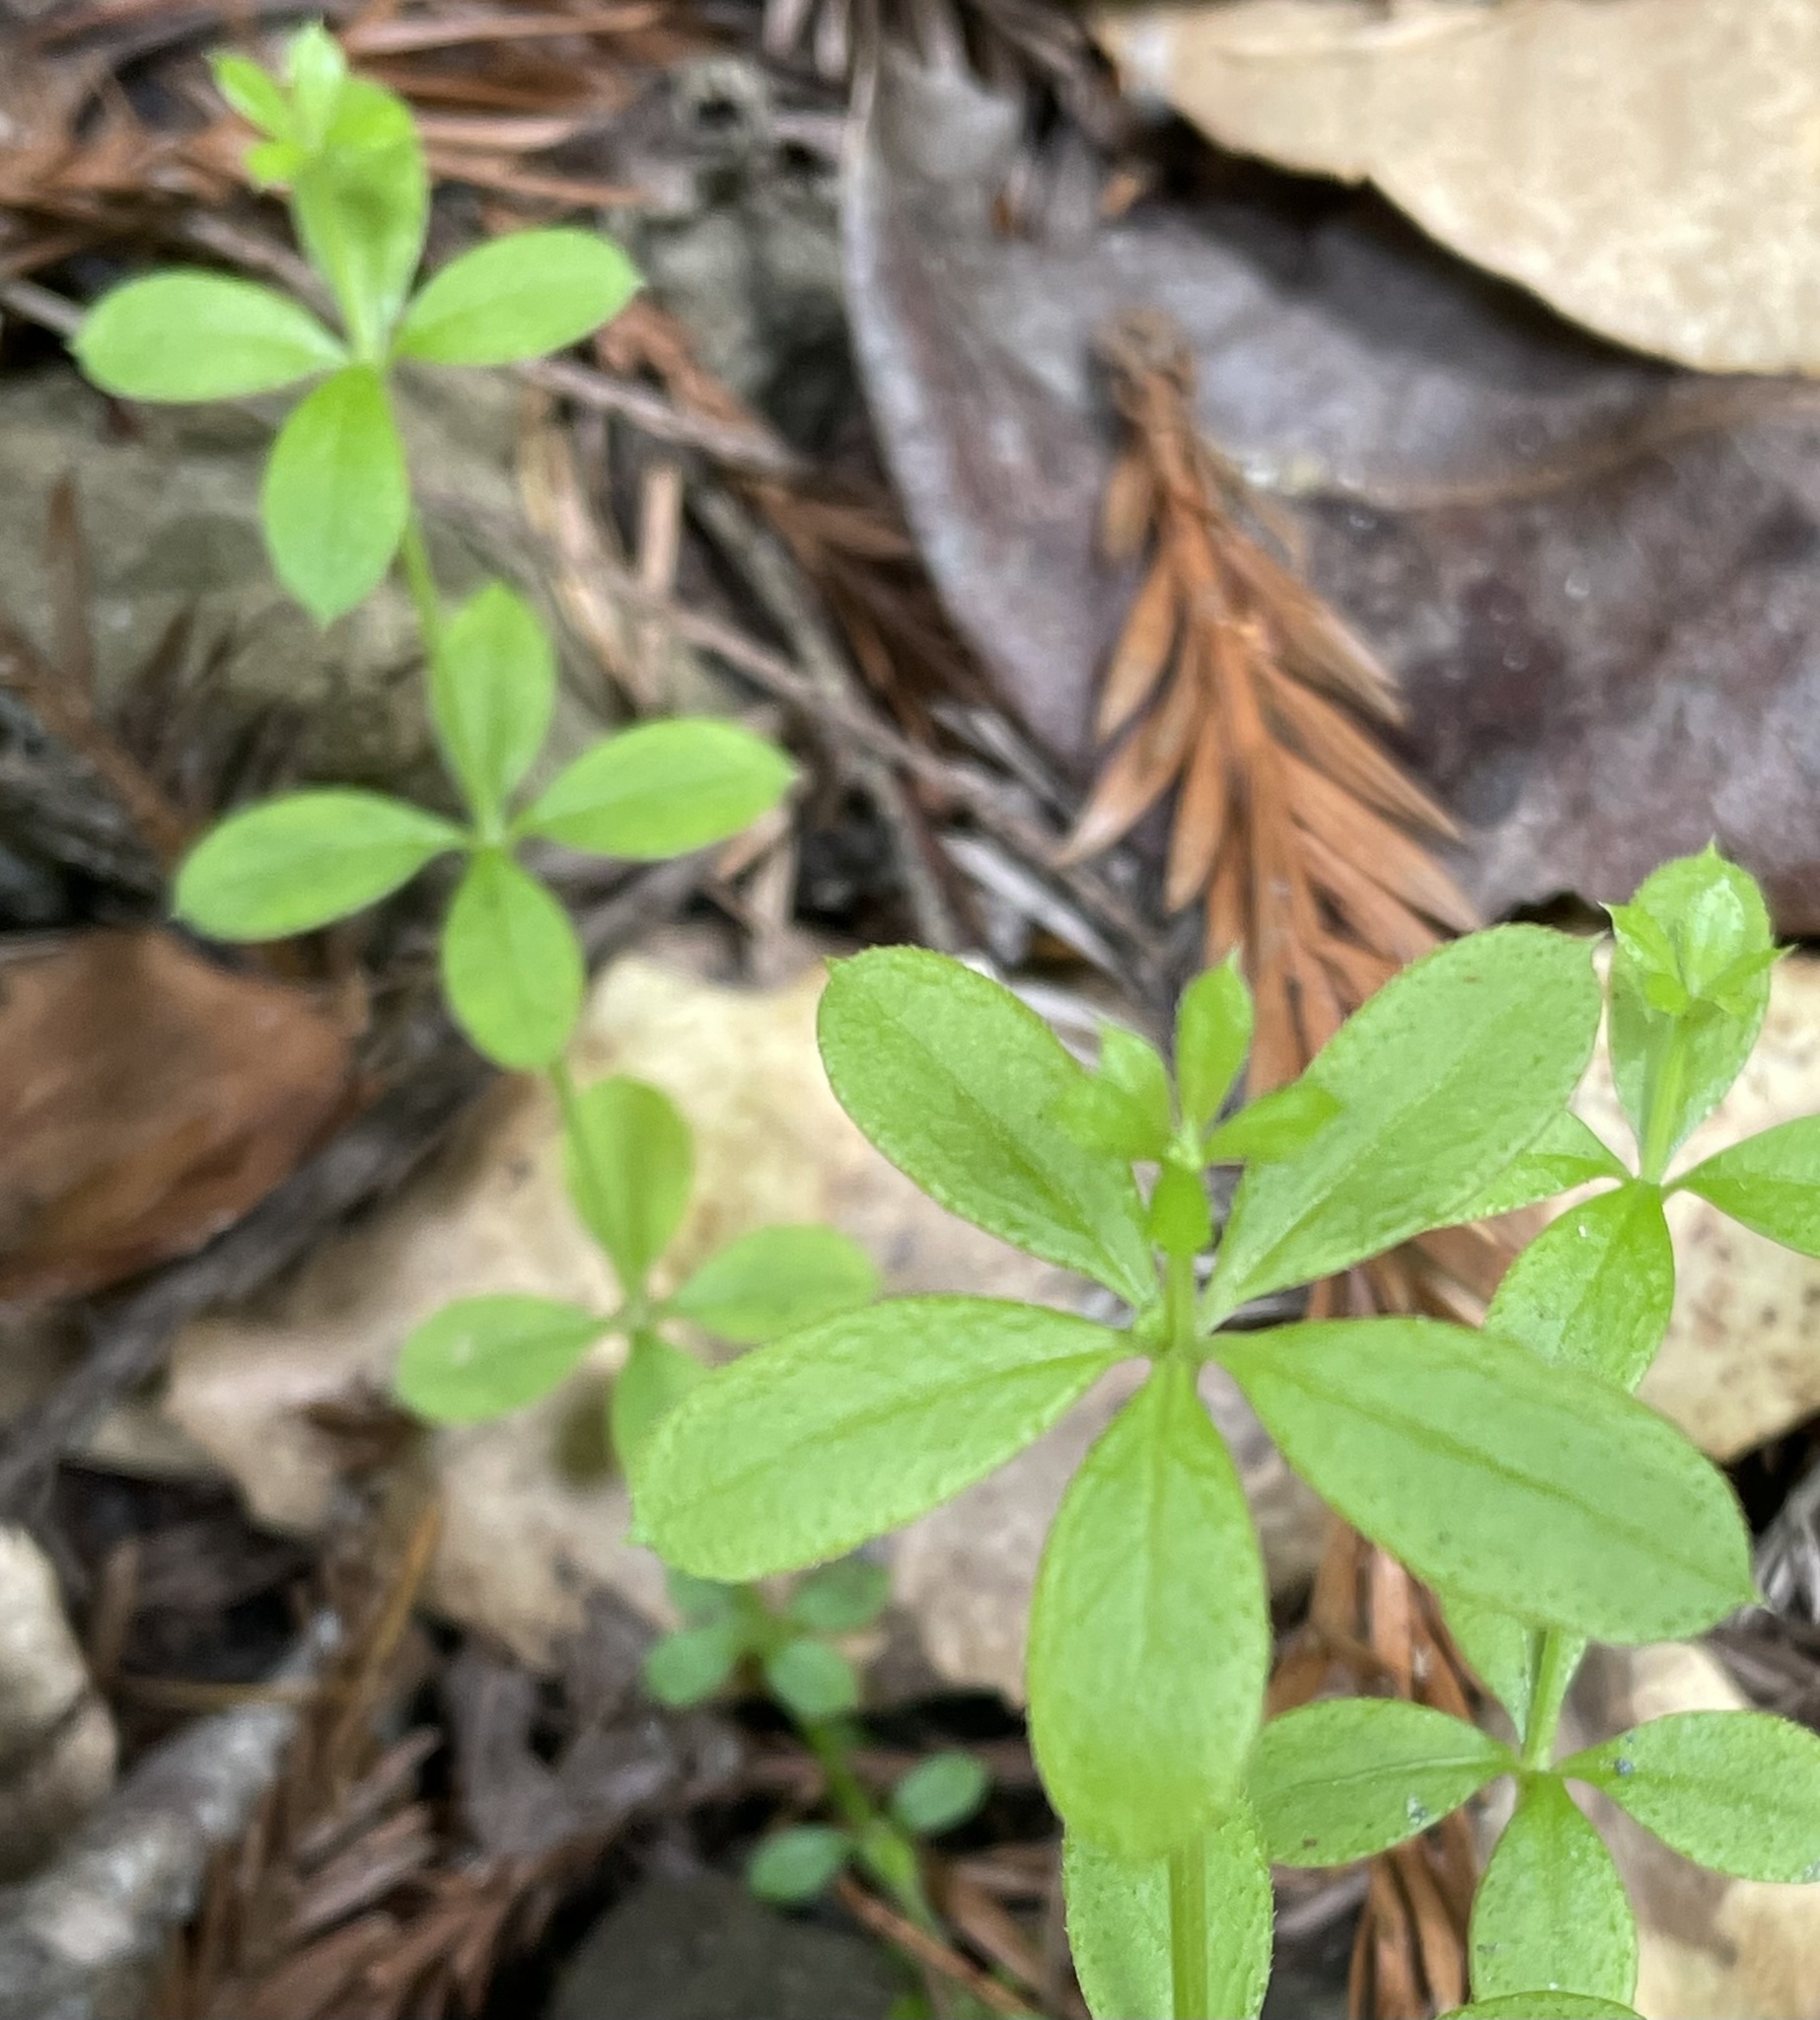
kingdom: Plantae
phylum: Tracheophyta
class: Magnoliopsida
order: Gentianales
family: Rubiaceae
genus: Galium
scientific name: Galium triflorum
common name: Fragrant bedstraw
